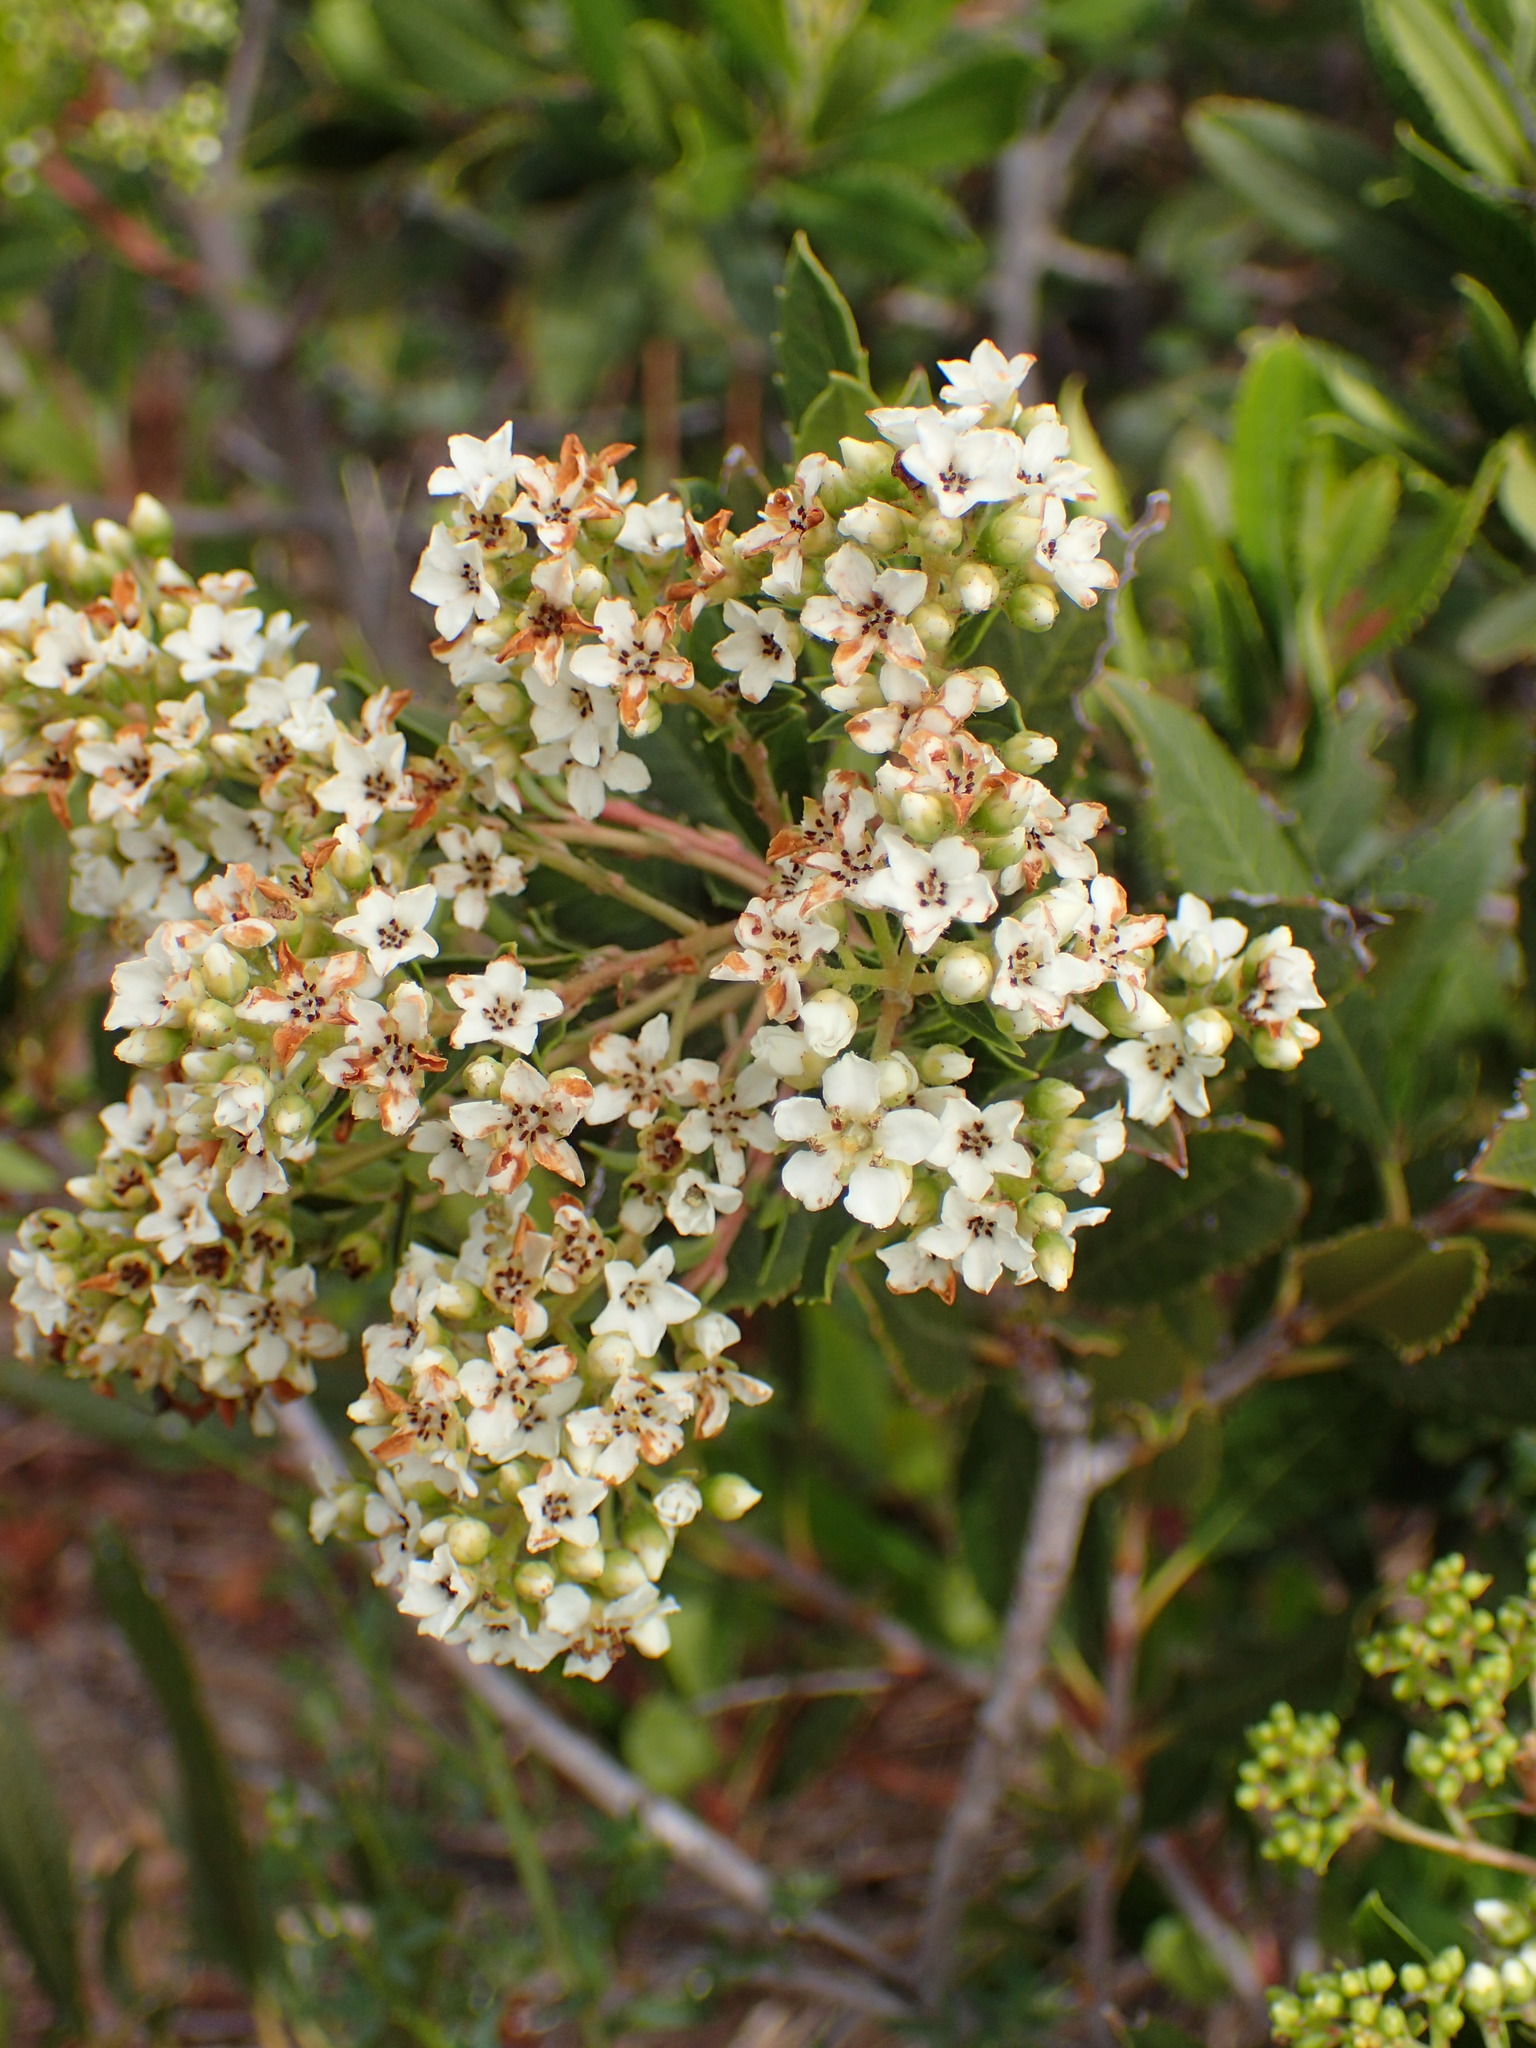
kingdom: Plantae
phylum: Tracheophyta
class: Magnoliopsida
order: Rosales
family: Rosaceae
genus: Heteromeles
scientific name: Heteromeles arbutifolia
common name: California-holly
